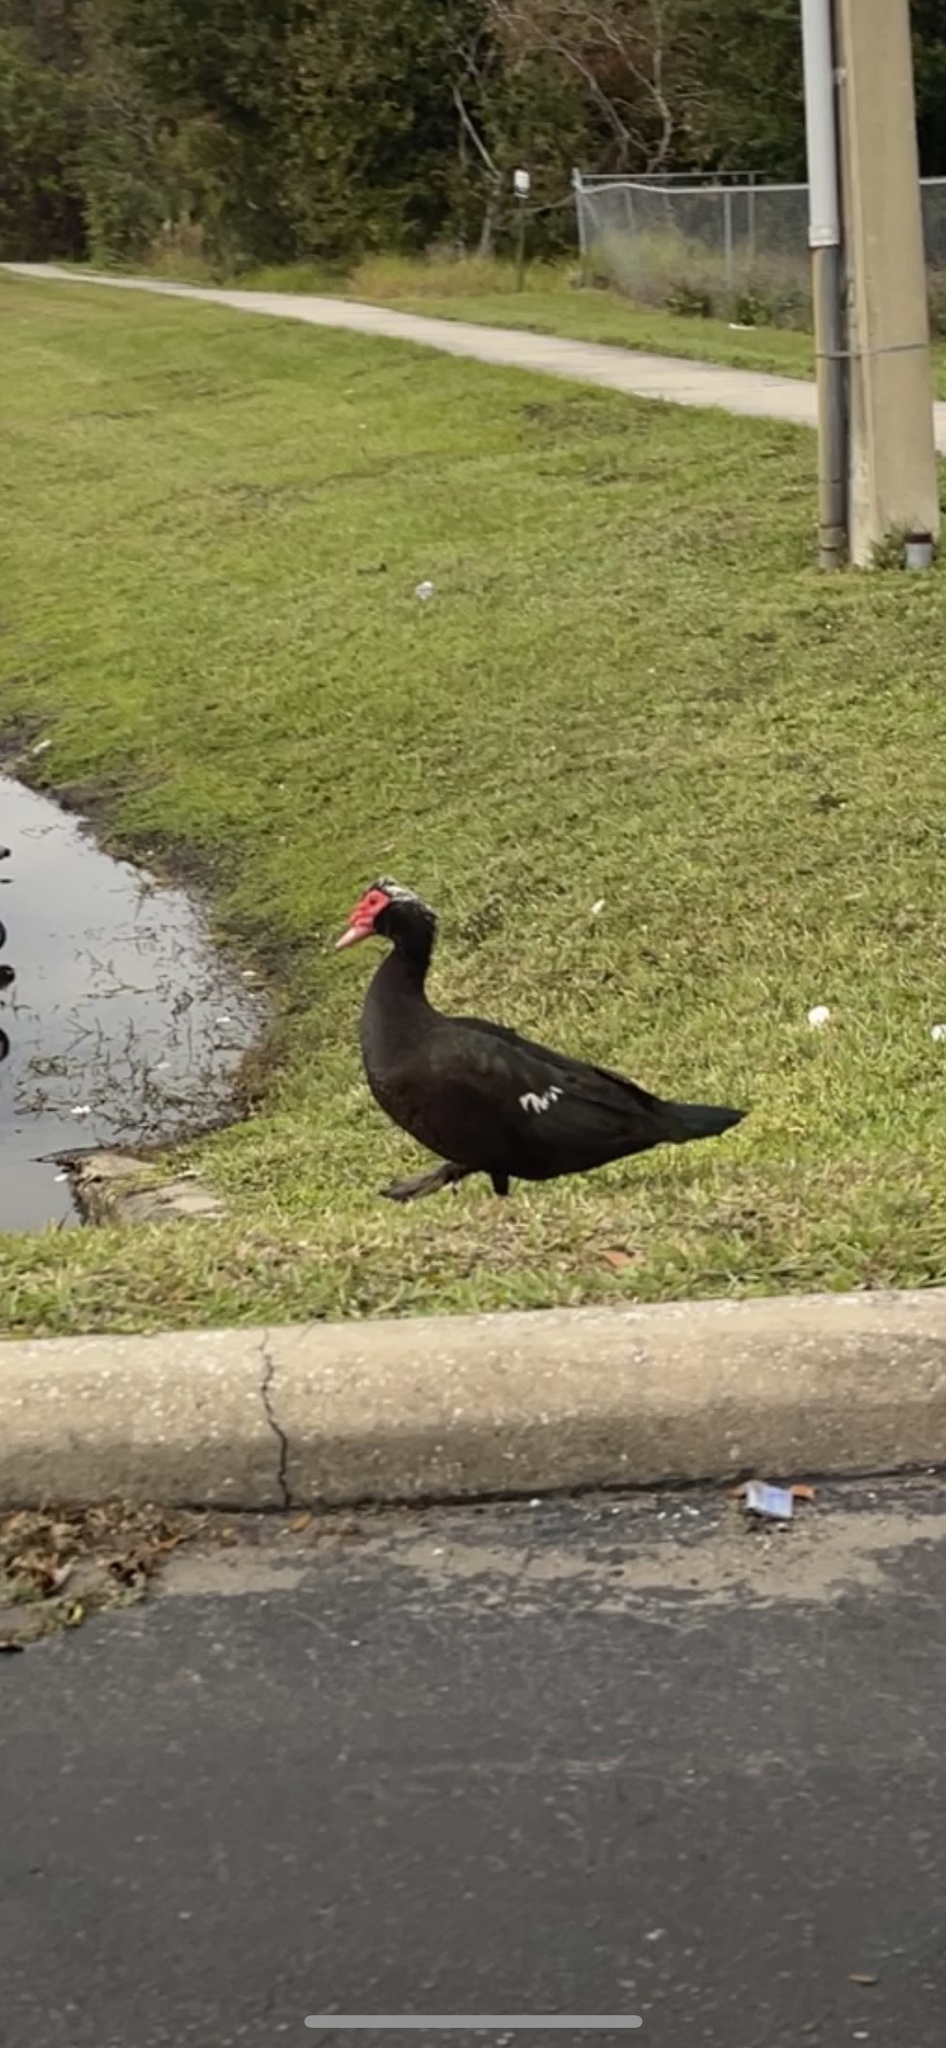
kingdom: Animalia
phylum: Chordata
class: Aves
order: Anseriformes
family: Anatidae
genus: Cairina
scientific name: Cairina moschata
